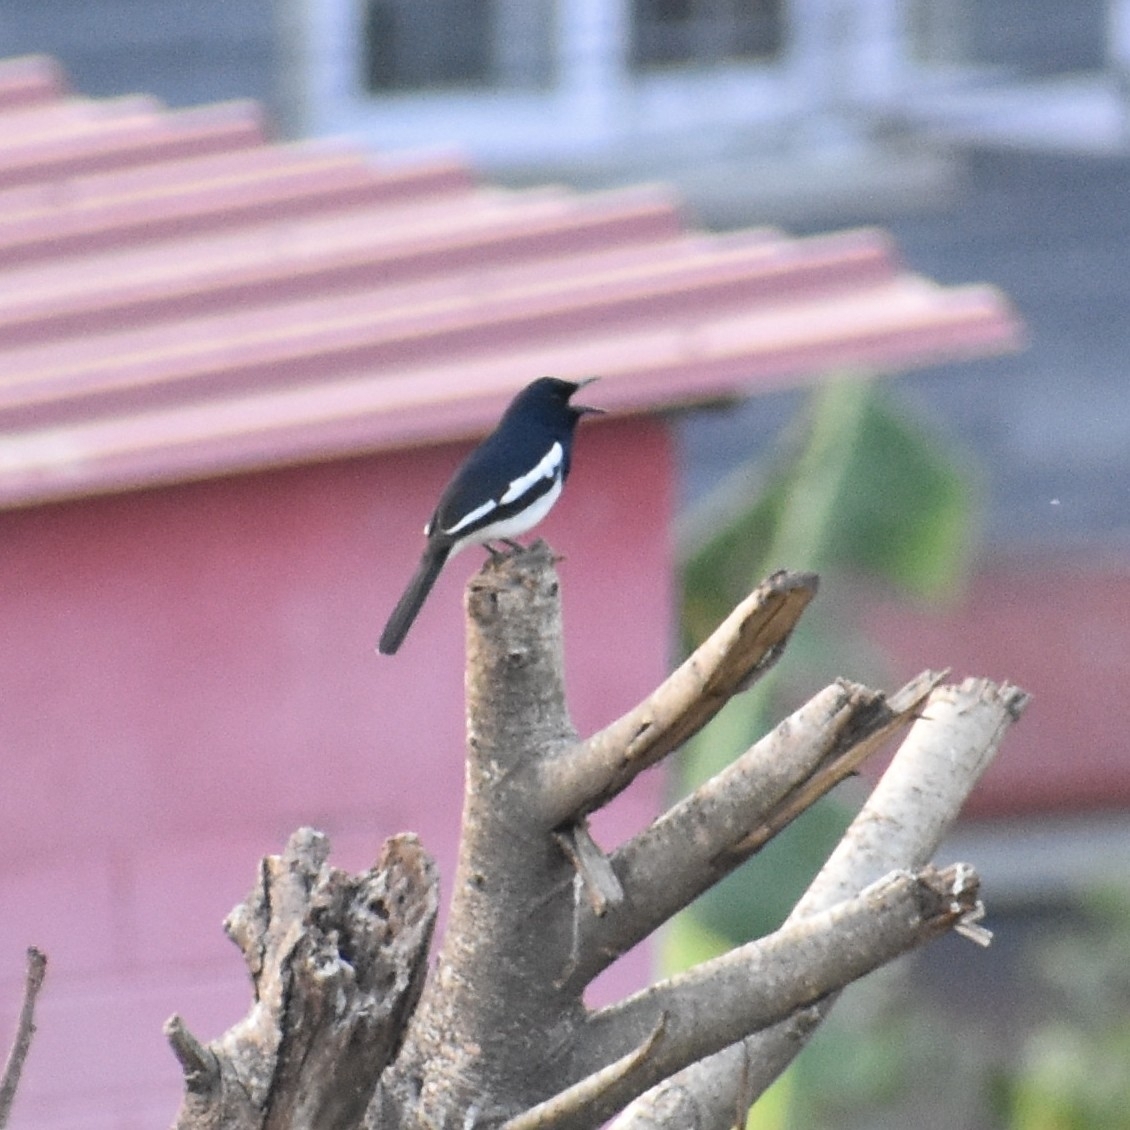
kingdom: Animalia
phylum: Chordata
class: Aves
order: Passeriformes
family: Muscicapidae
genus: Copsychus
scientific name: Copsychus saularis
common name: Oriental magpie-robin
